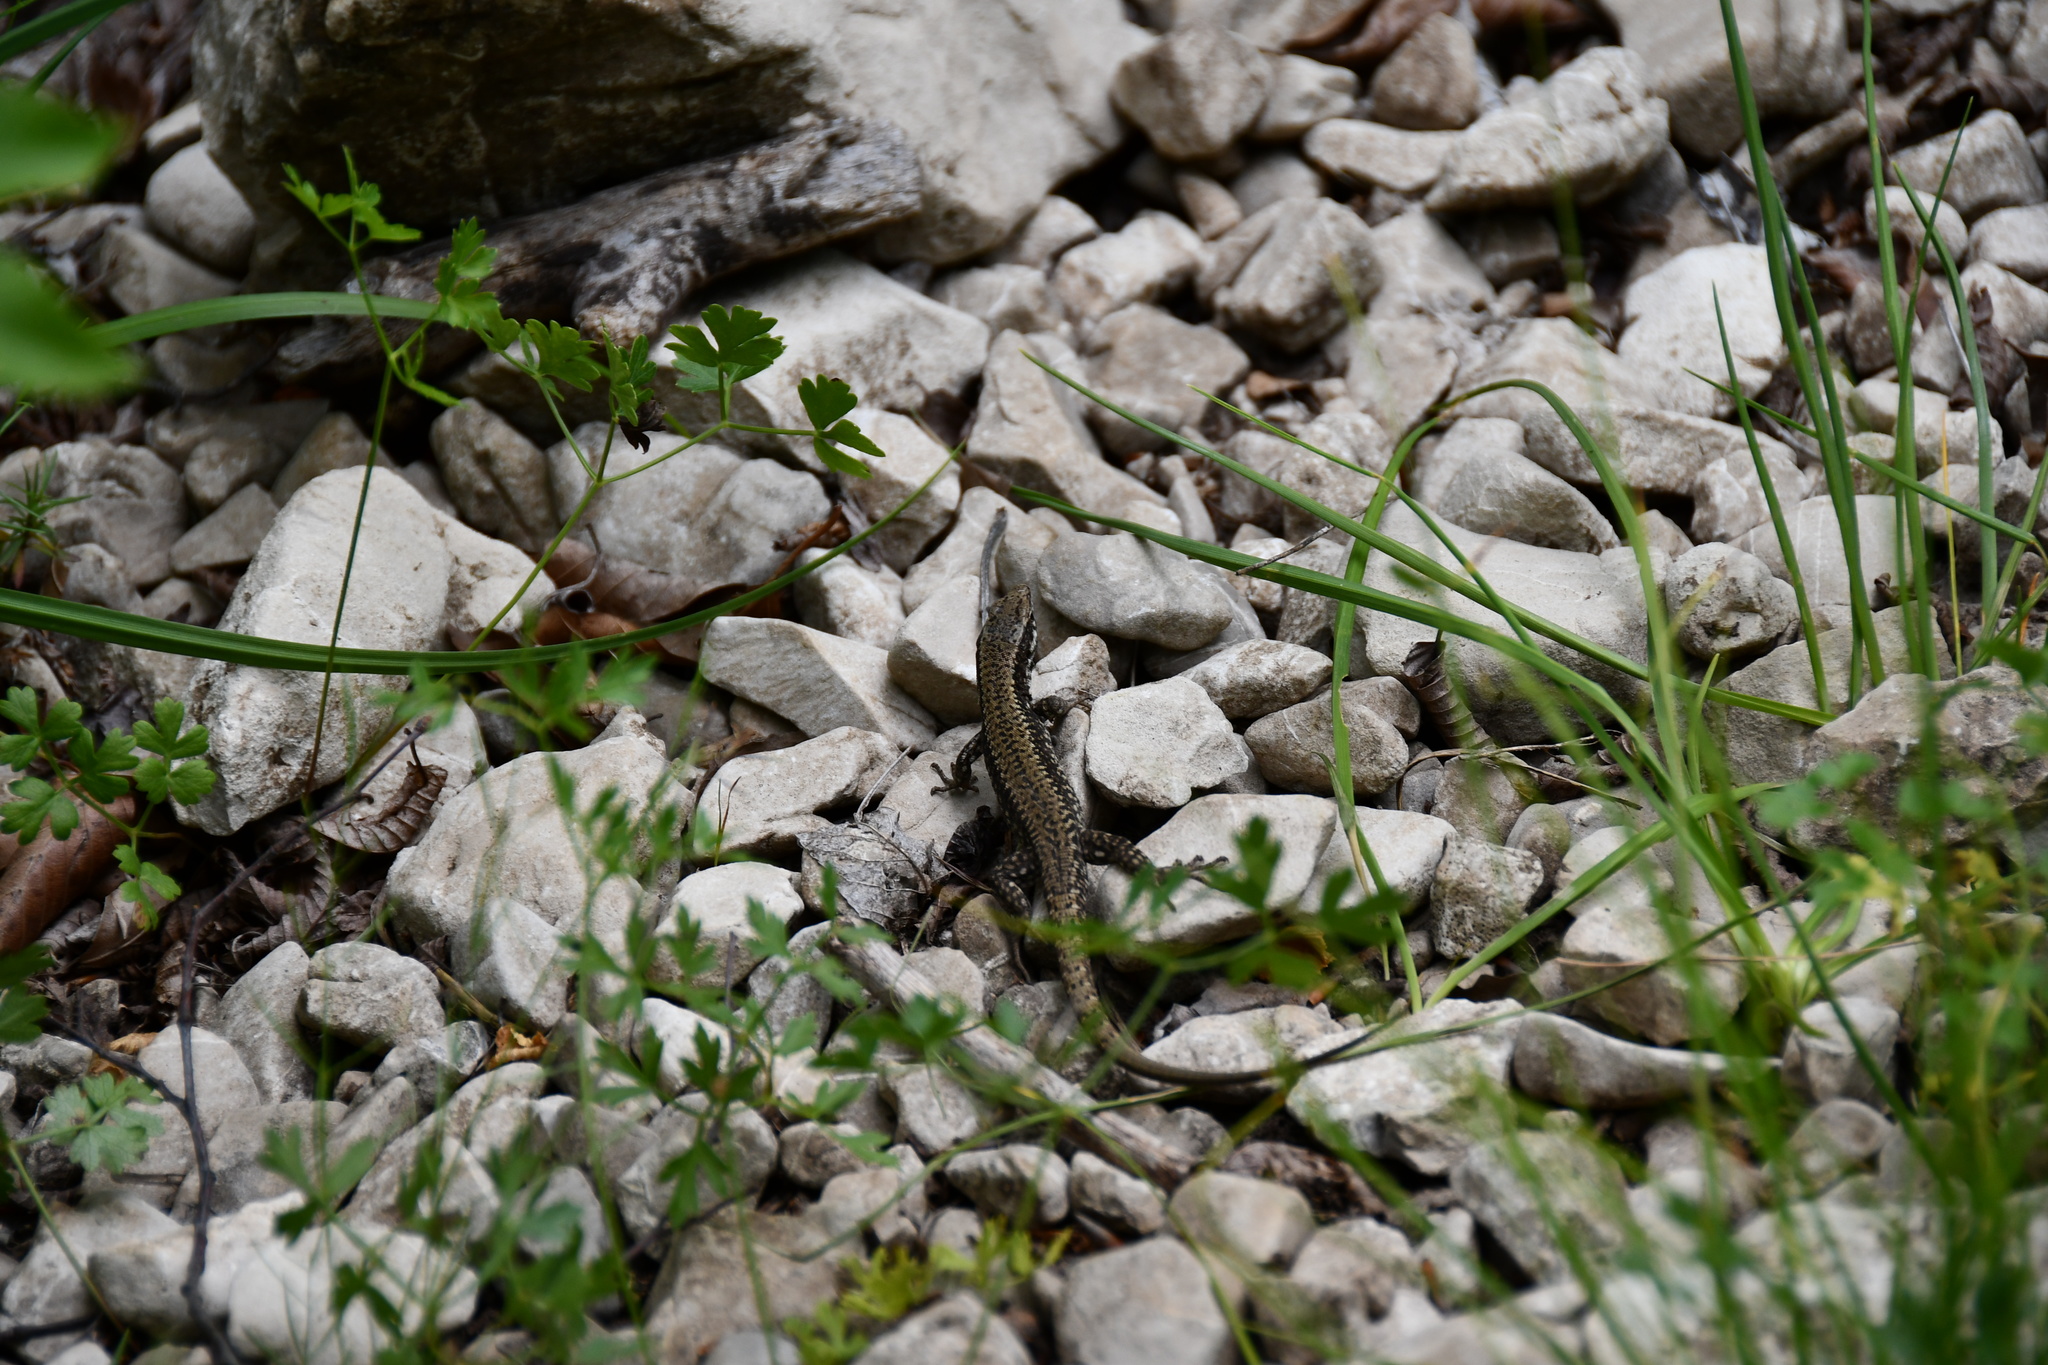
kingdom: Animalia
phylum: Chordata
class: Squamata
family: Lacertidae
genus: Podarcis
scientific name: Podarcis muralis
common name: Common wall lizard
